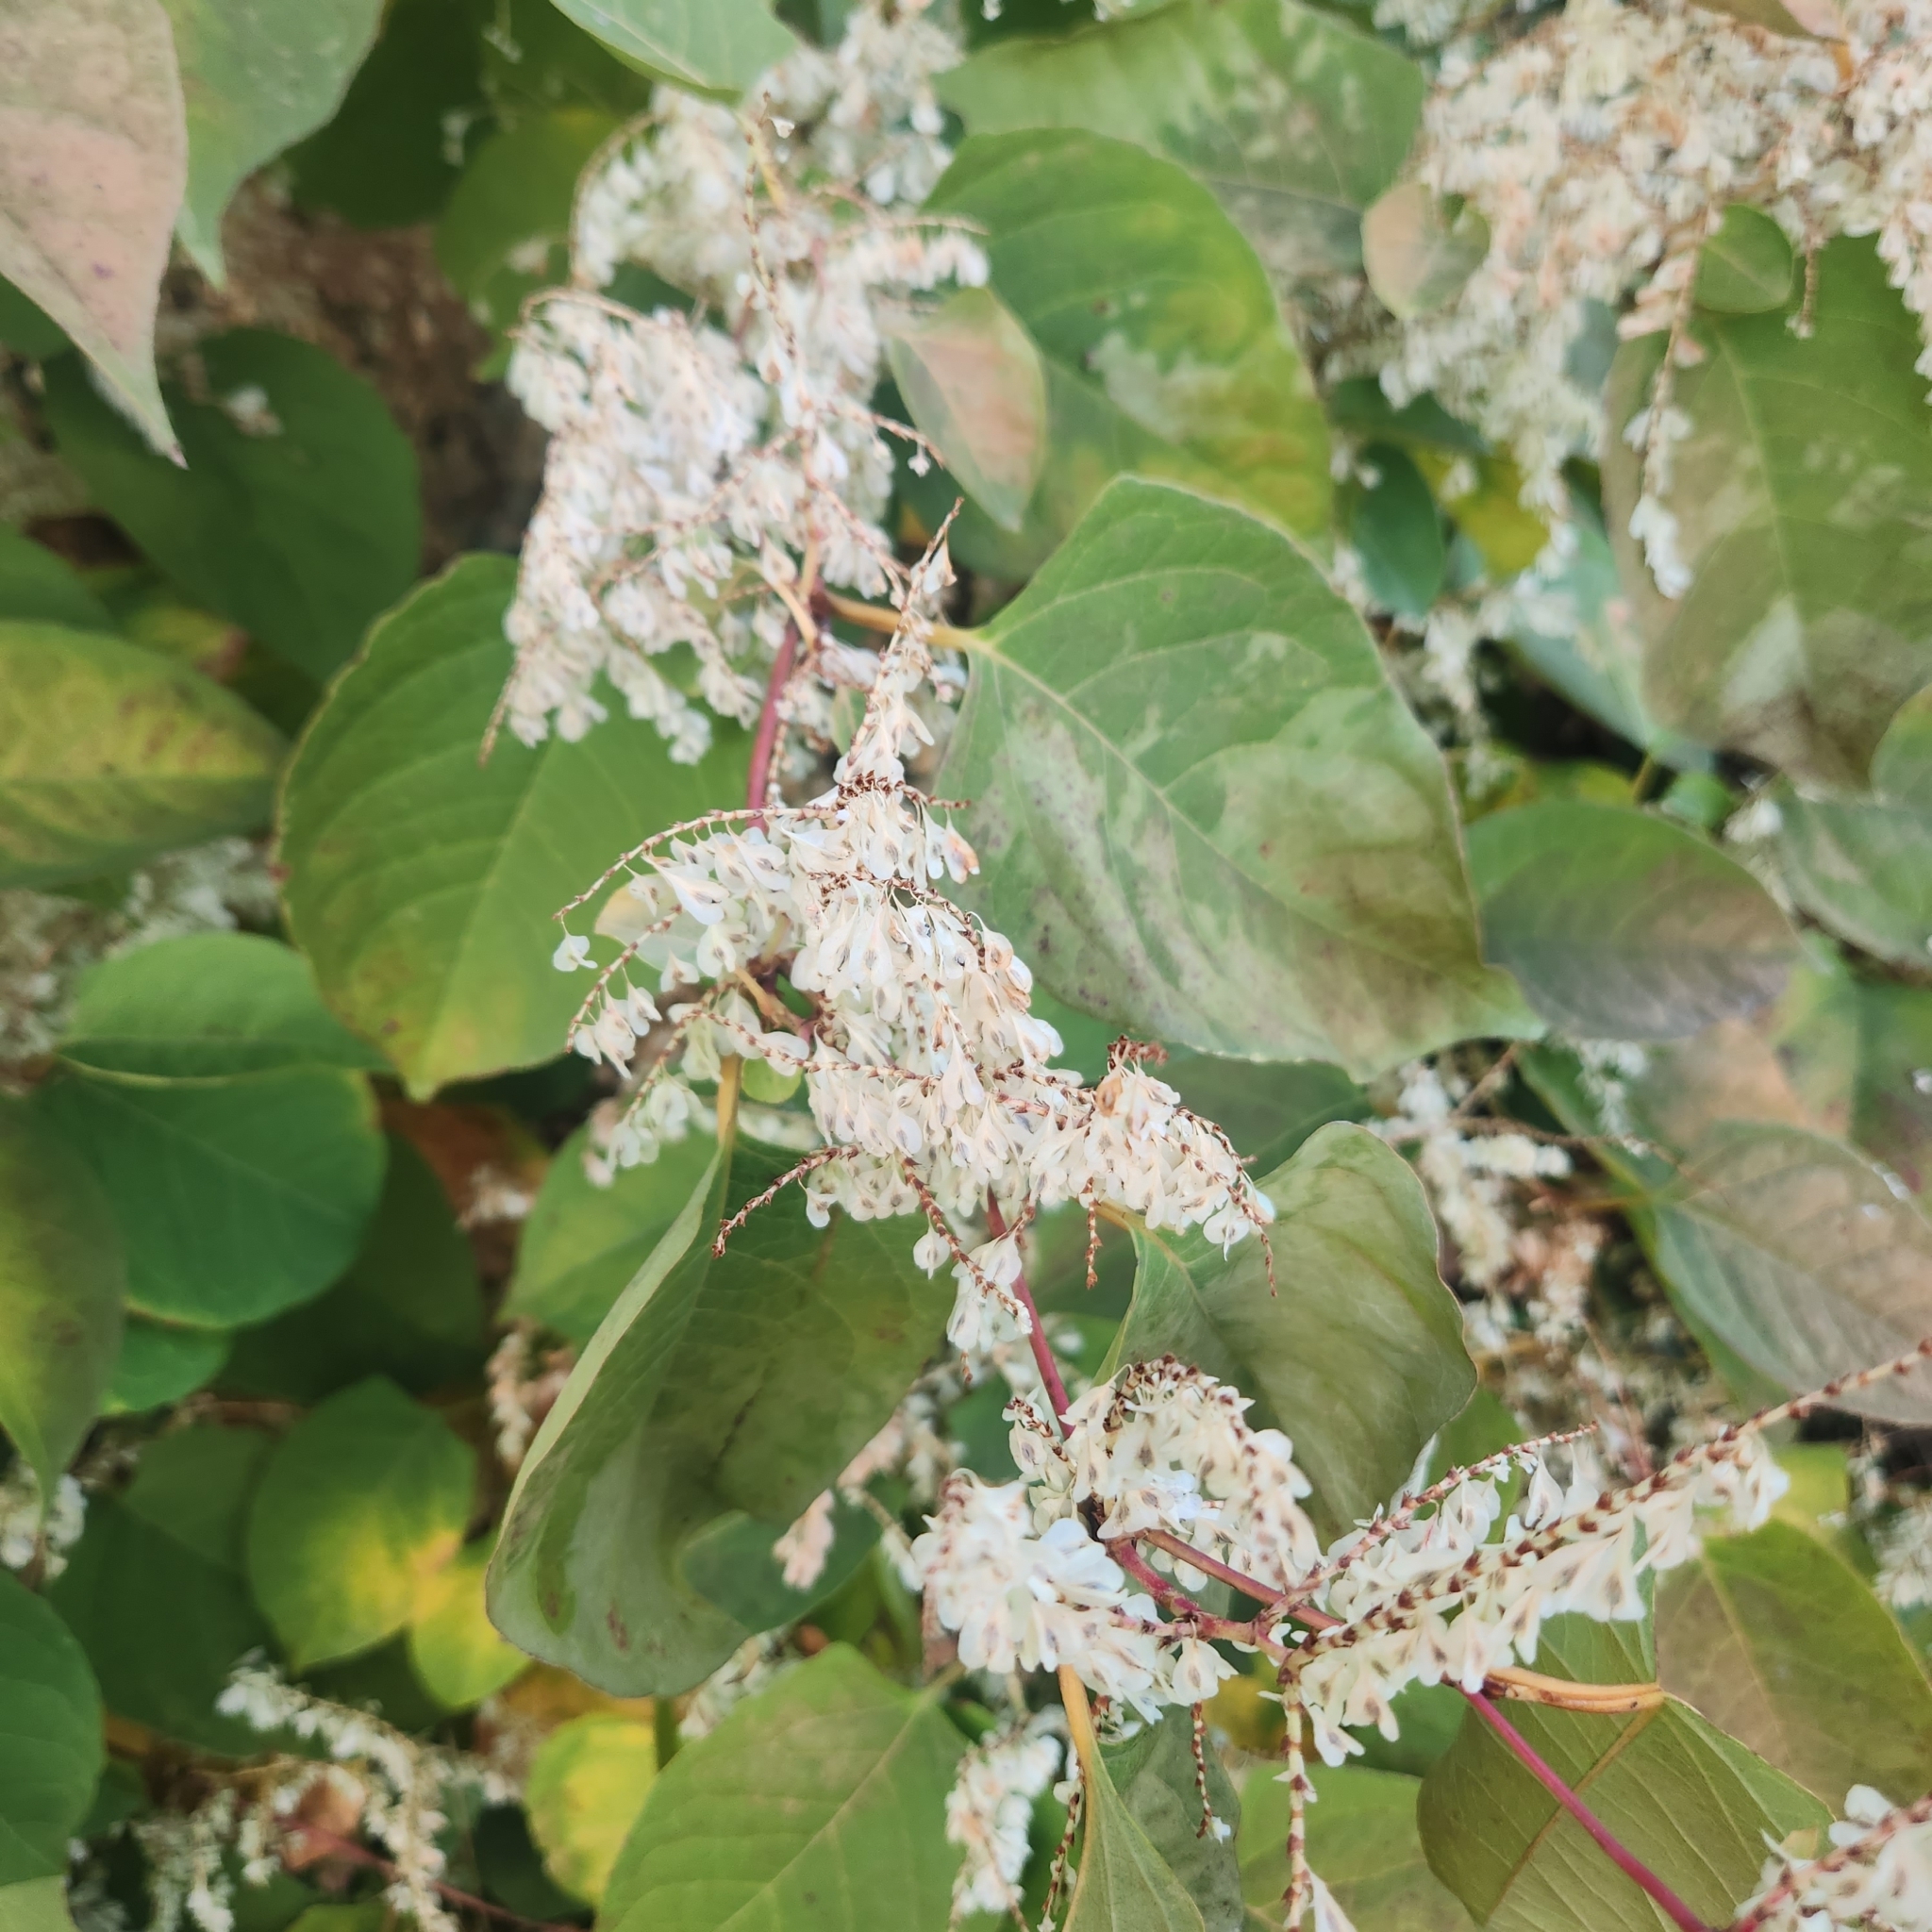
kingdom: Plantae
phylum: Tracheophyta
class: Magnoliopsida
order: Caryophyllales
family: Polygonaceae
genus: Reynoutria
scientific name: Reynoutria japonica
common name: Japanese knotweed
